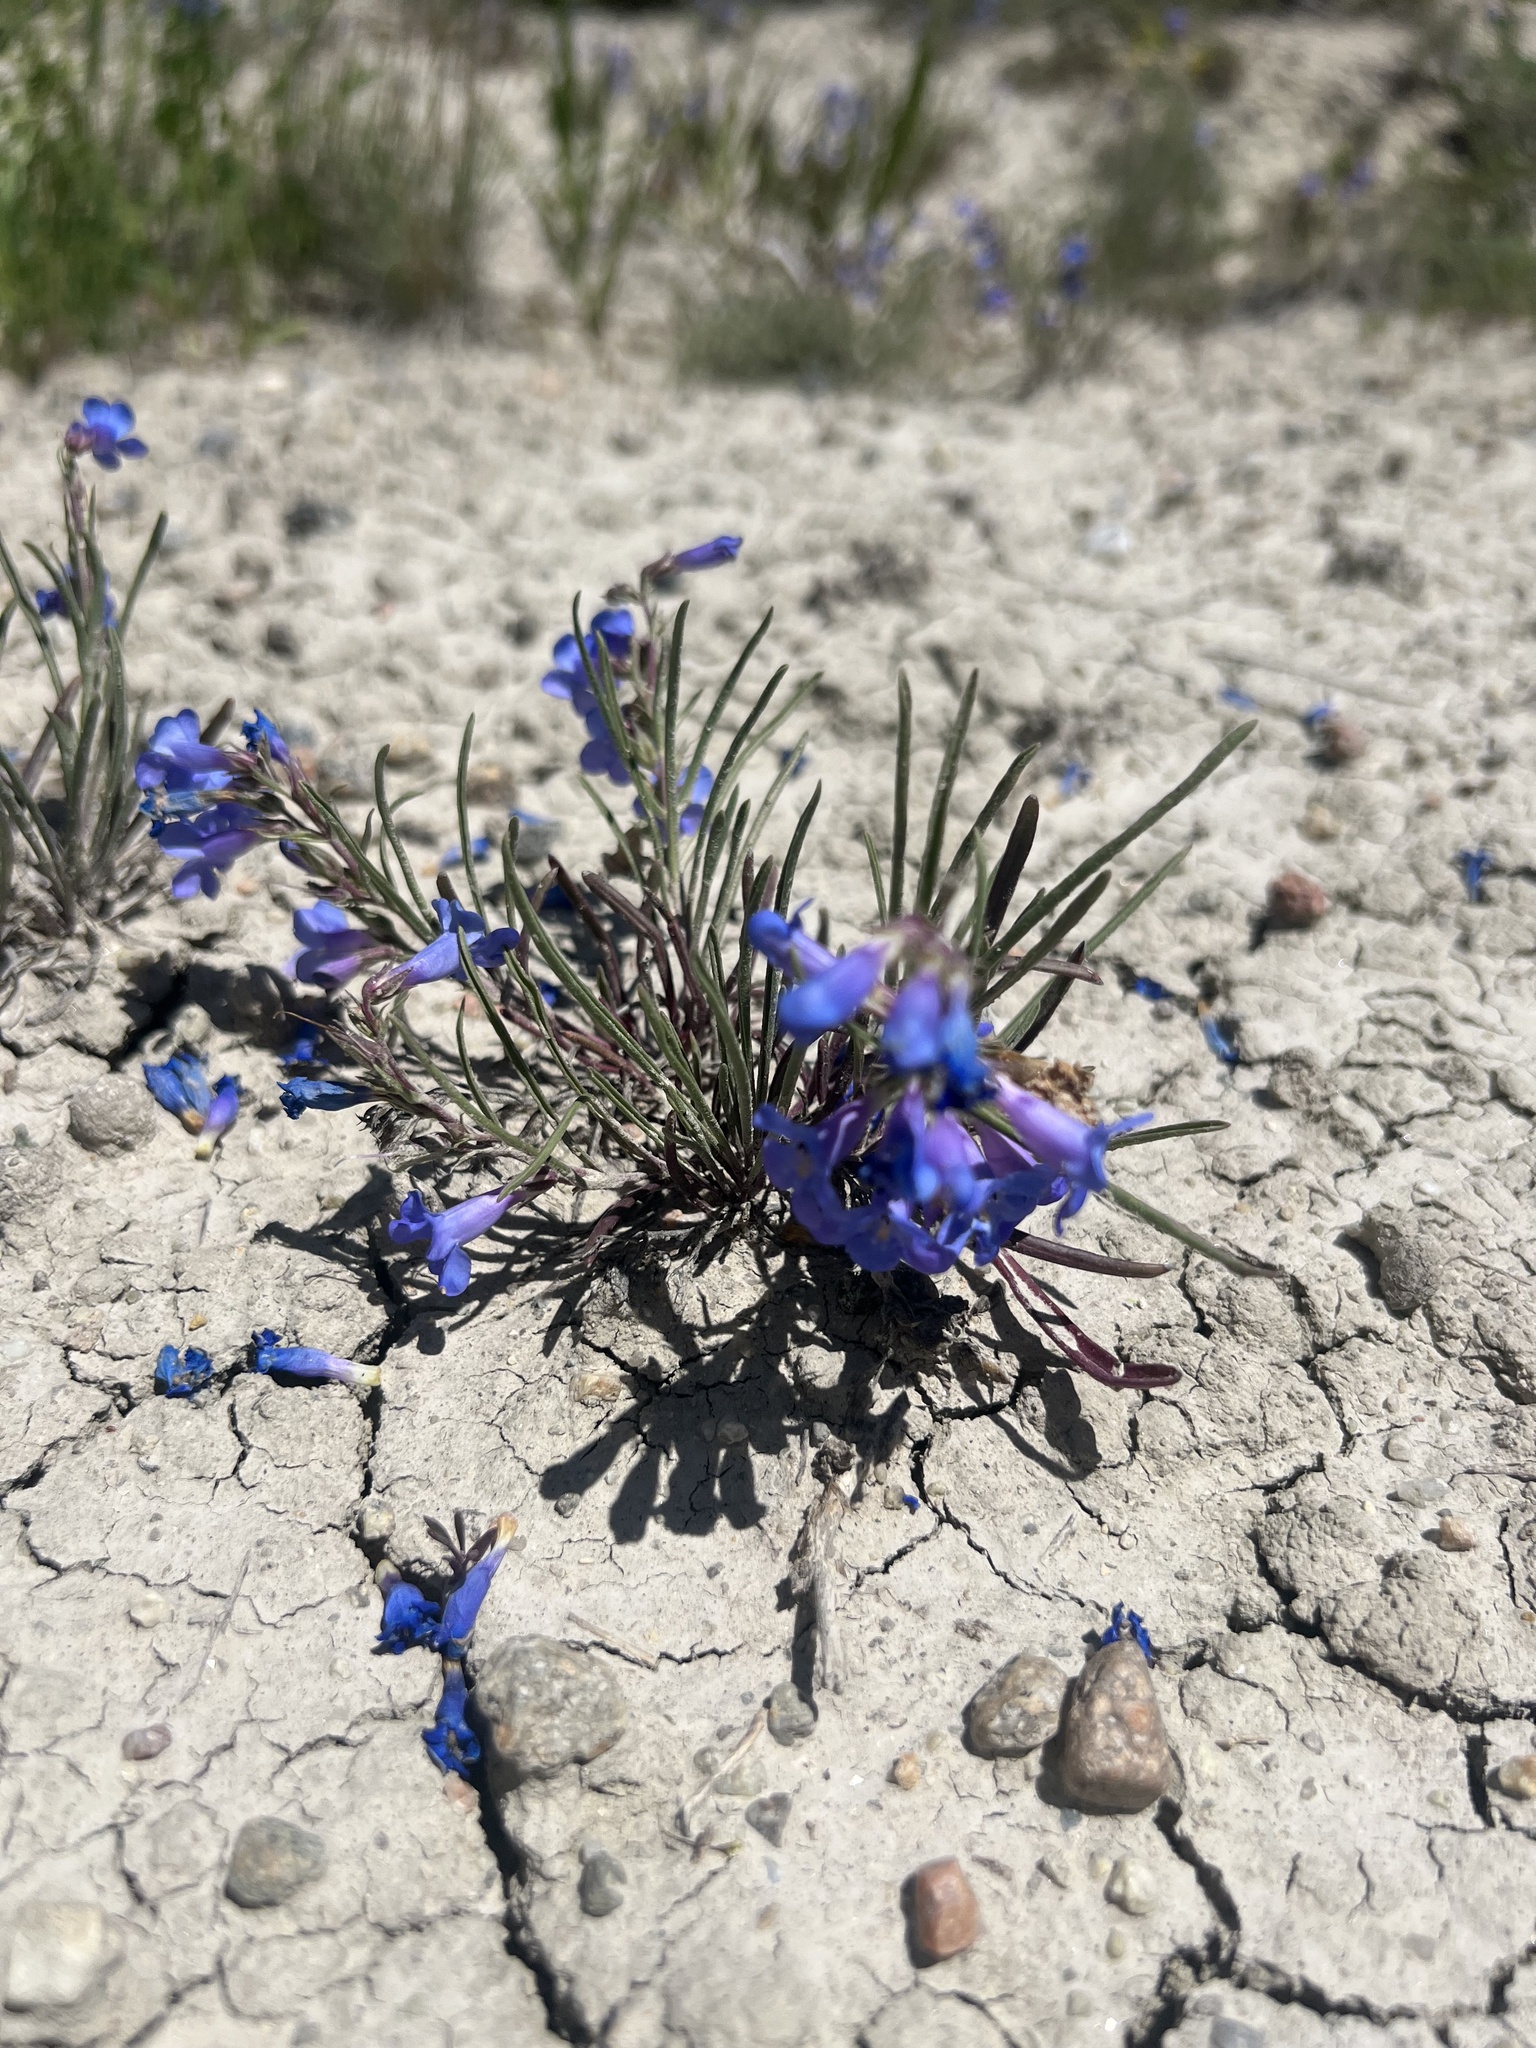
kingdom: Plantae
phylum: Tracheophyta
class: Magnoliopsida
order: Lamiales
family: Plantaginaceae
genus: Penstemon
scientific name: Penstemon penlandii
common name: Penland's beardtongue
